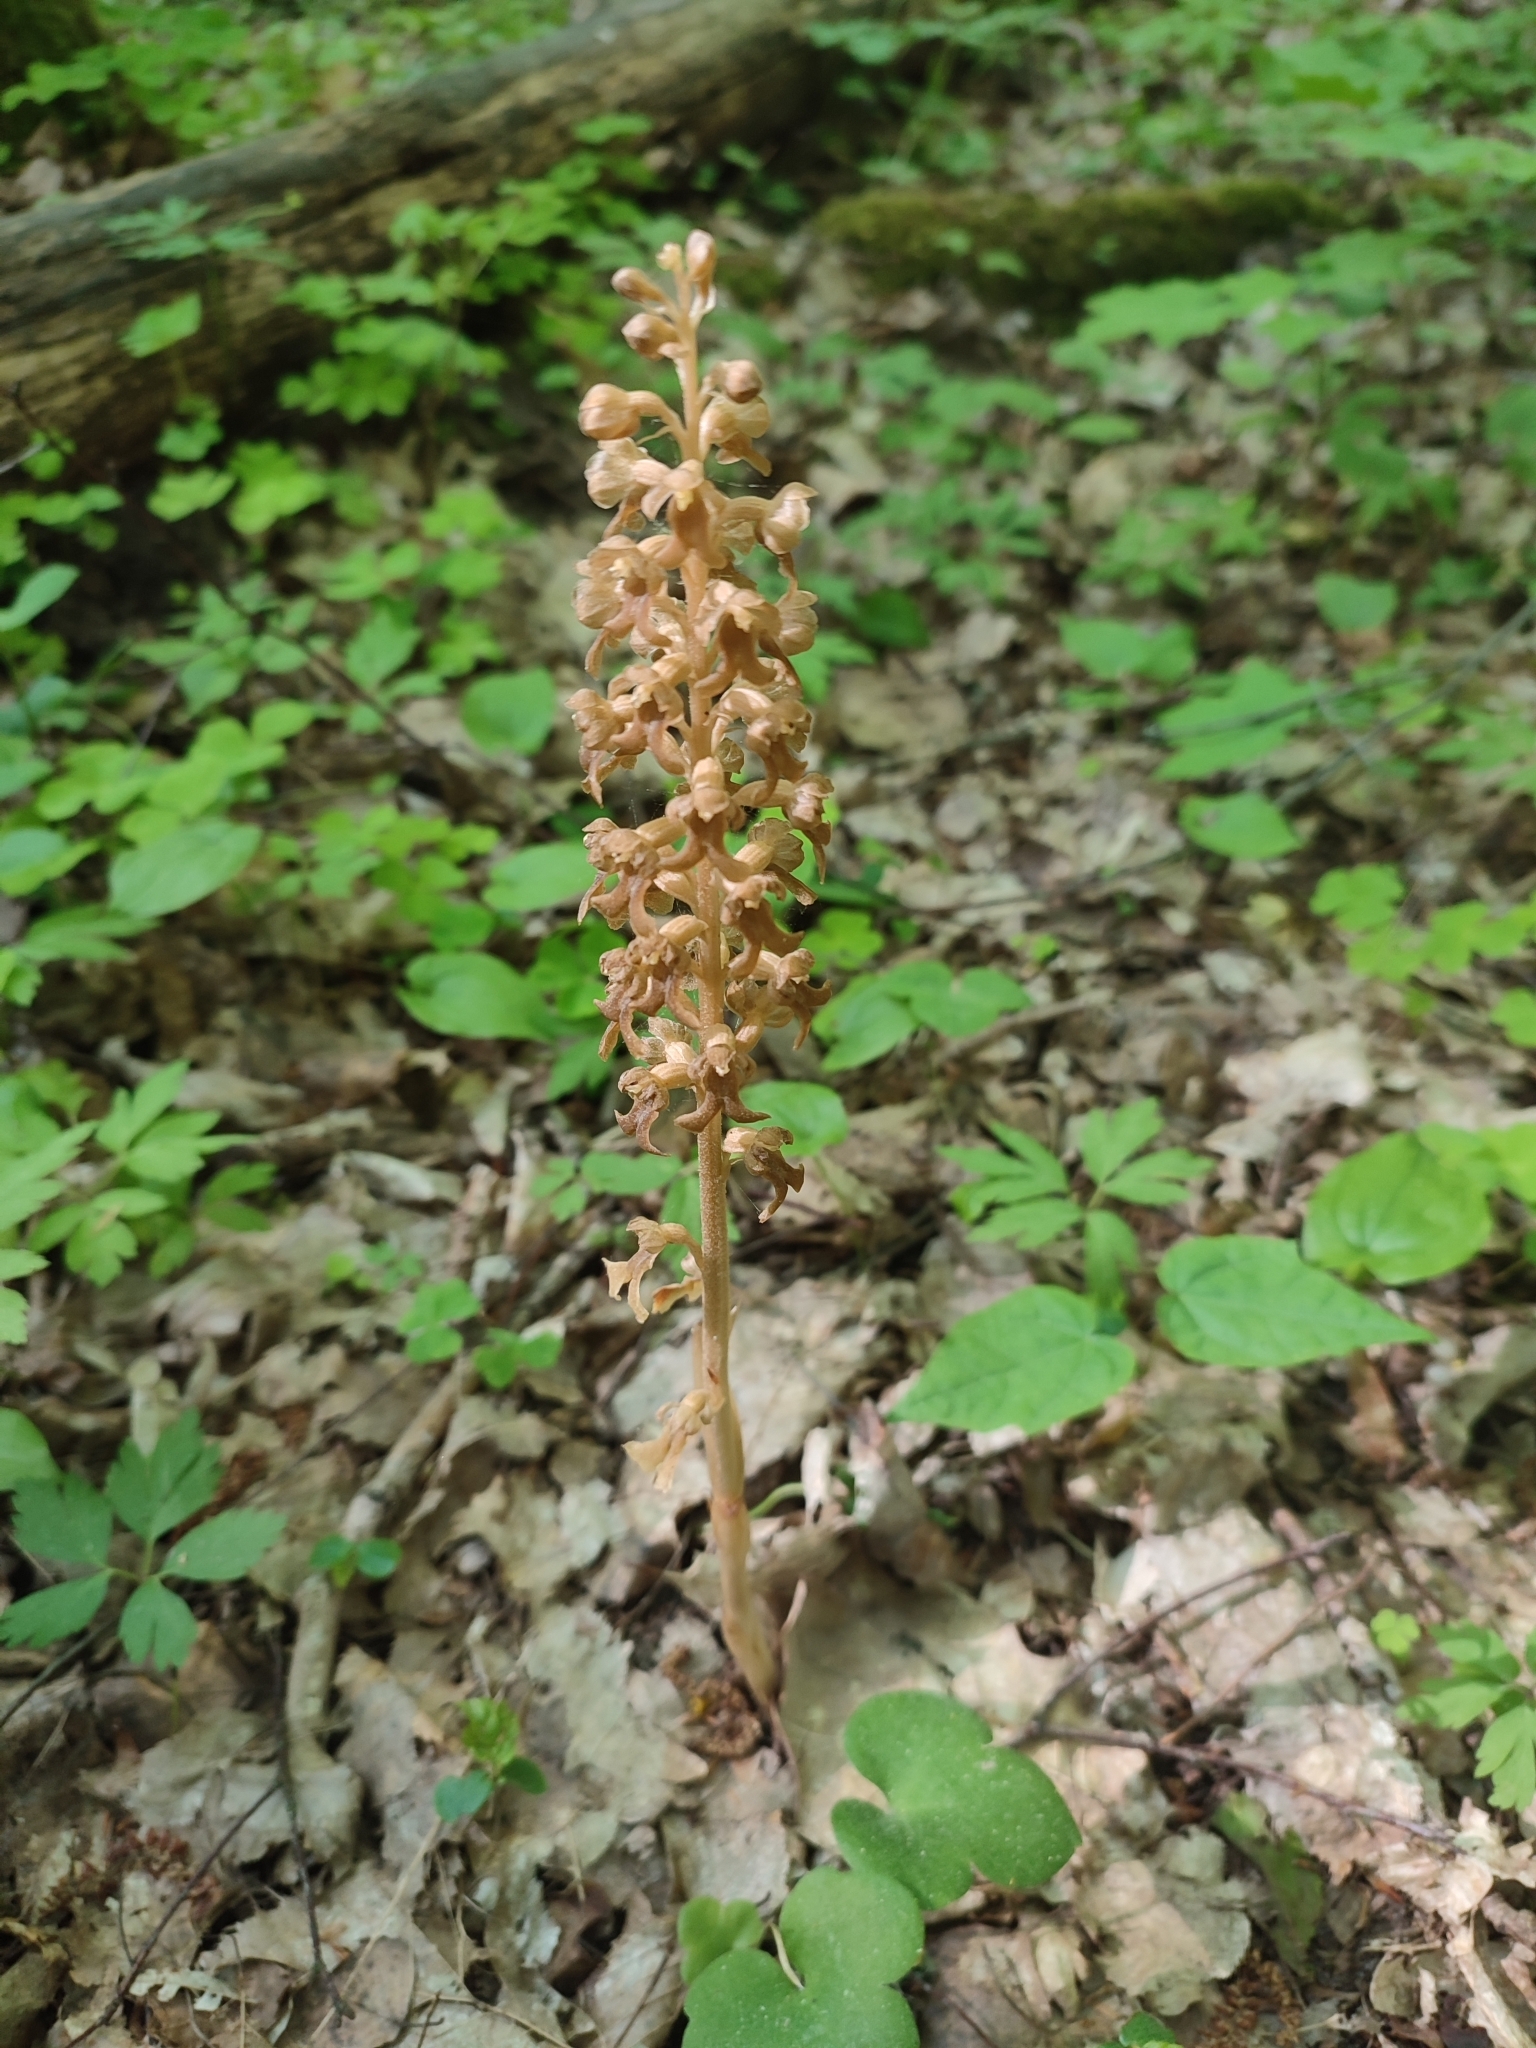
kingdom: Plantae
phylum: Tracheophyta
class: Liliopsida
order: Asparagales
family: Orchidaceae
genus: Neottia
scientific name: Neottia nidus-avis
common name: Bird's-nest orchid
